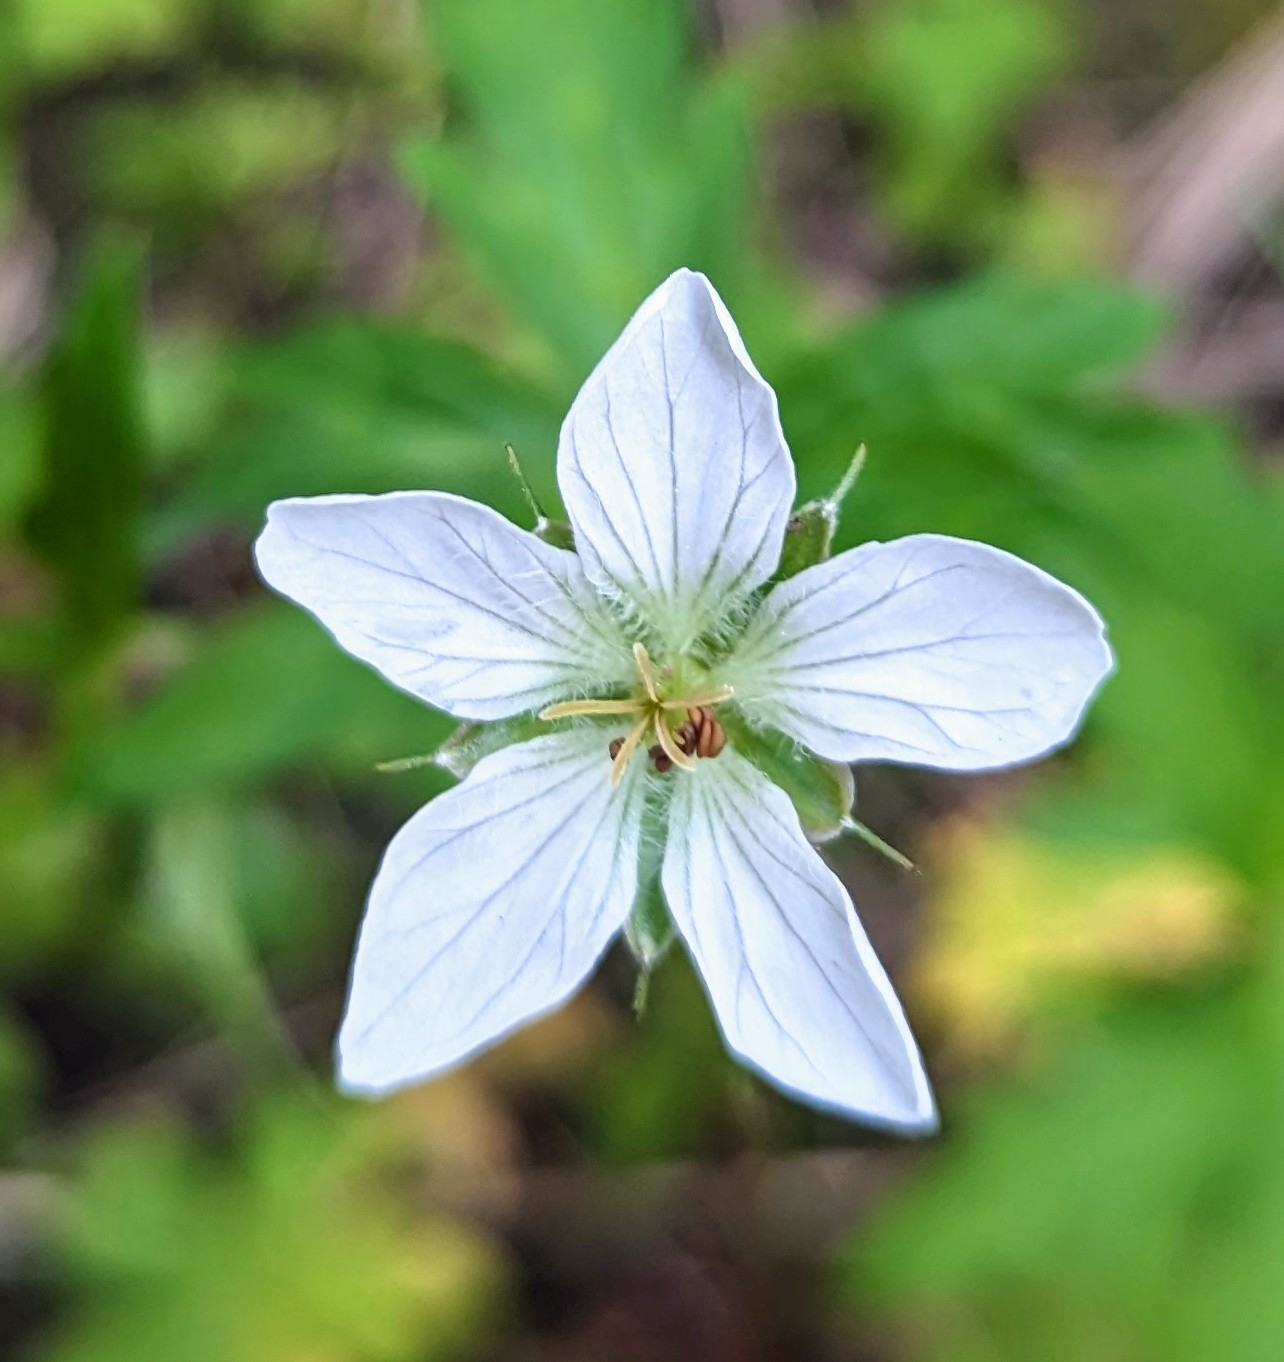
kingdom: Plantae
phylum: Tracheophyta
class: Magnoliopsida
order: Geraniales
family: Geraniaceae
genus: Geranium
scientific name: Geranium richardsonii
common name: Richardson's crane's-bill
